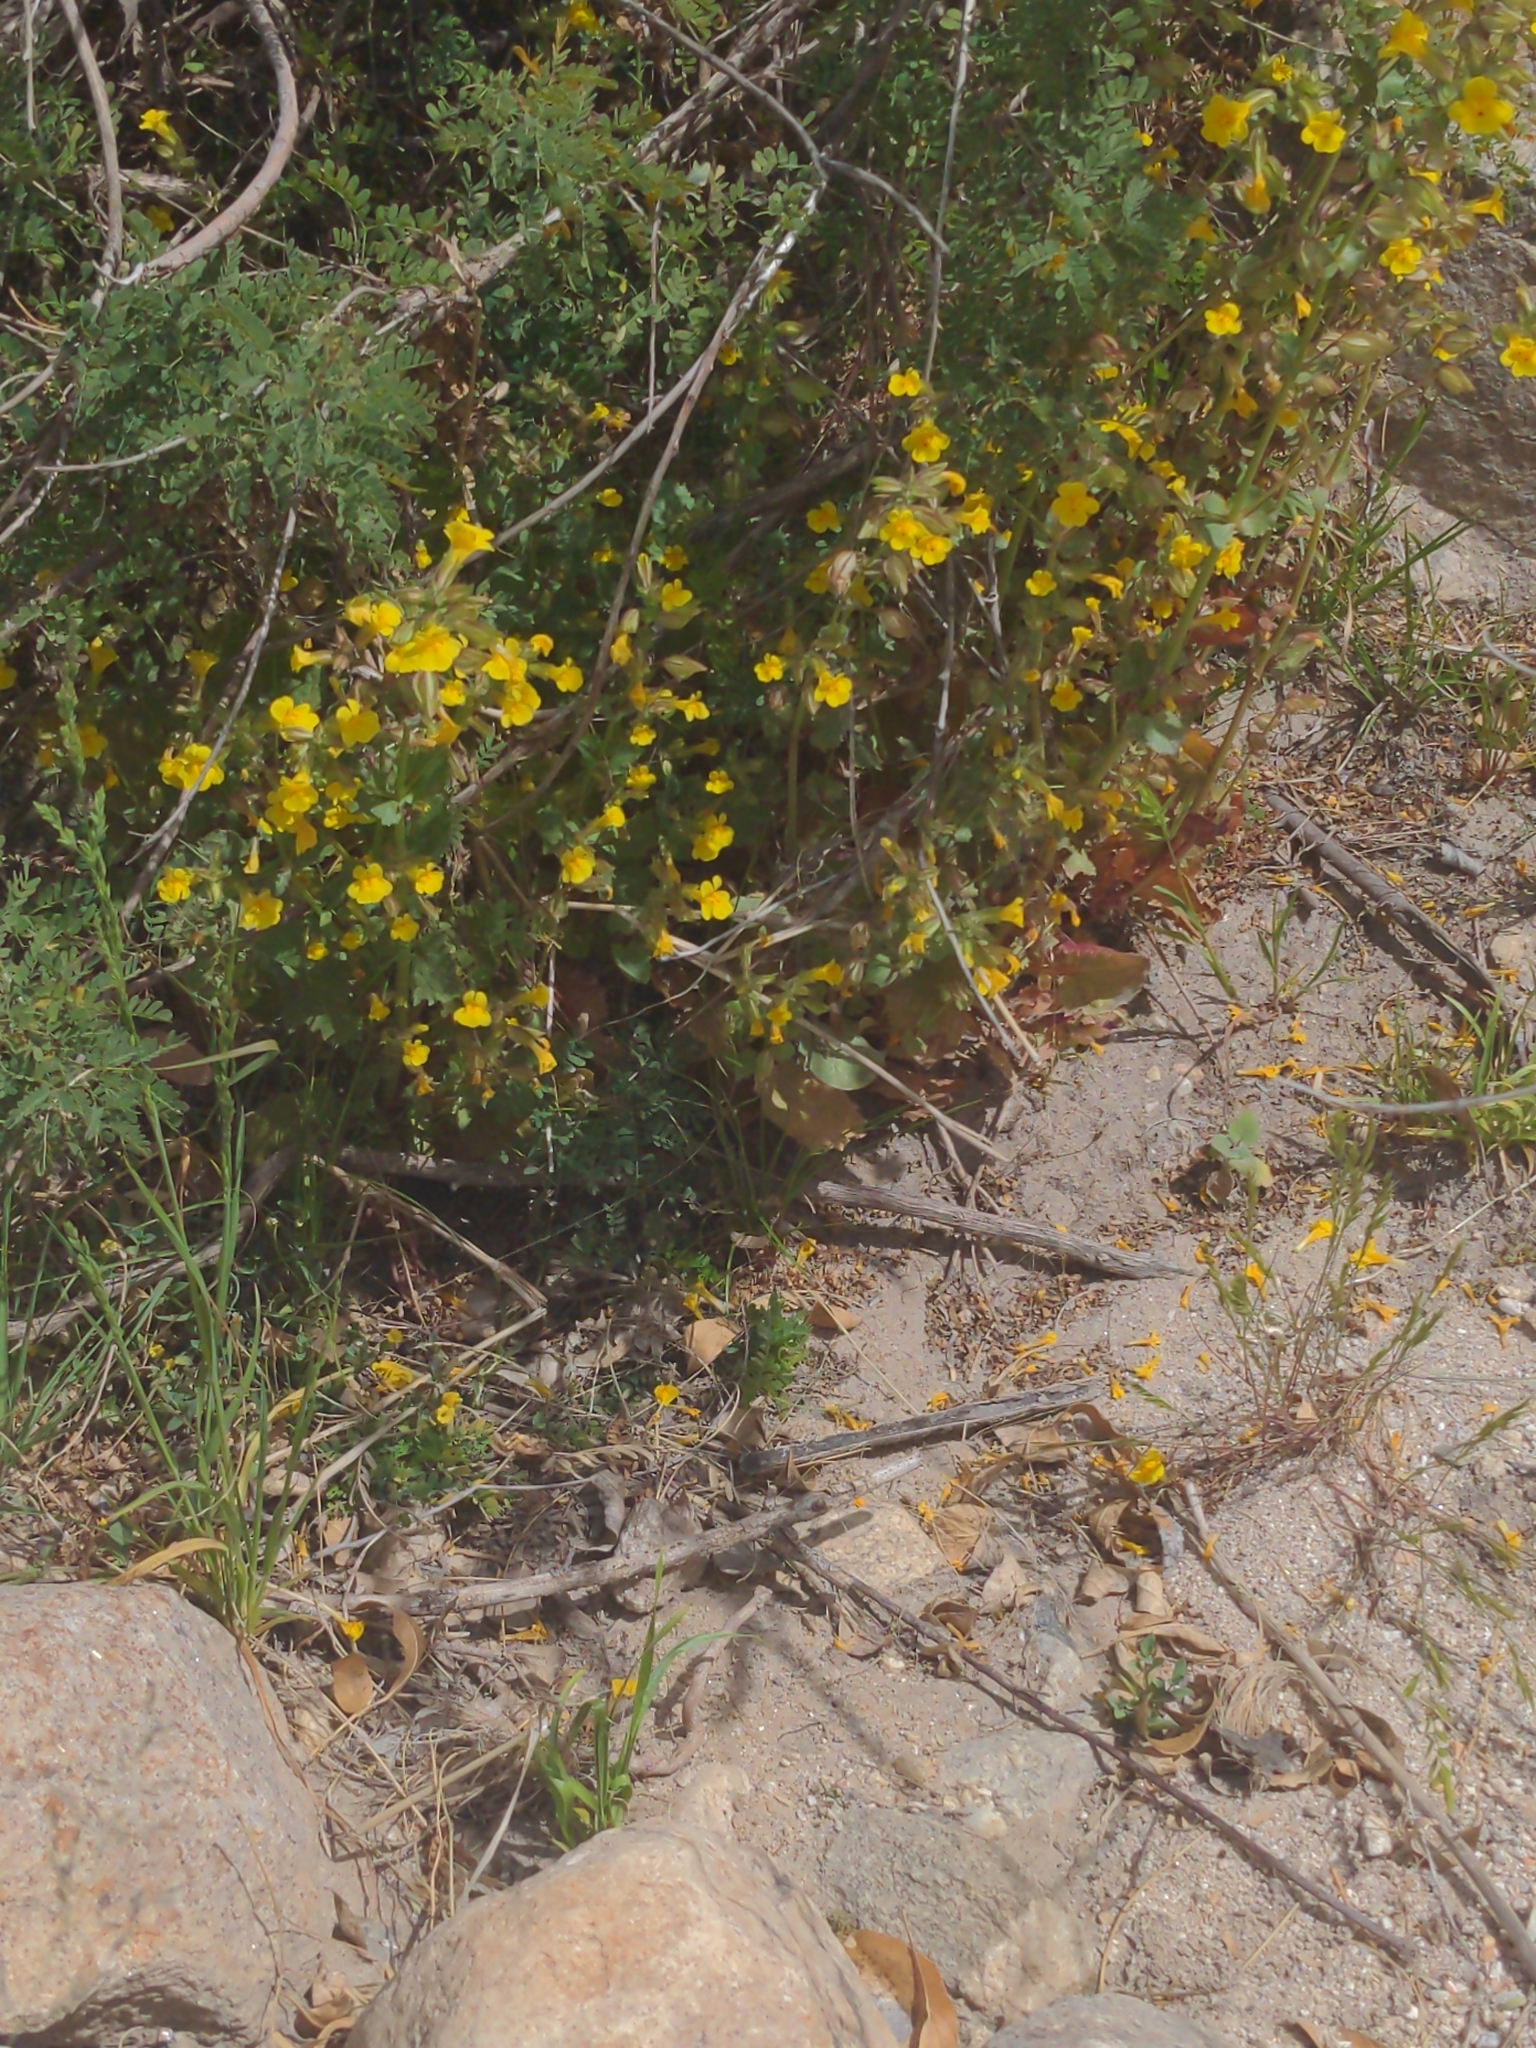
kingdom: Plantae
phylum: Tracheophyta
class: Magnoliopsida
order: Lamiales
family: Phrymaceae
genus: Erythranthe
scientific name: Erythranthe guttata
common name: Monkeyflower
